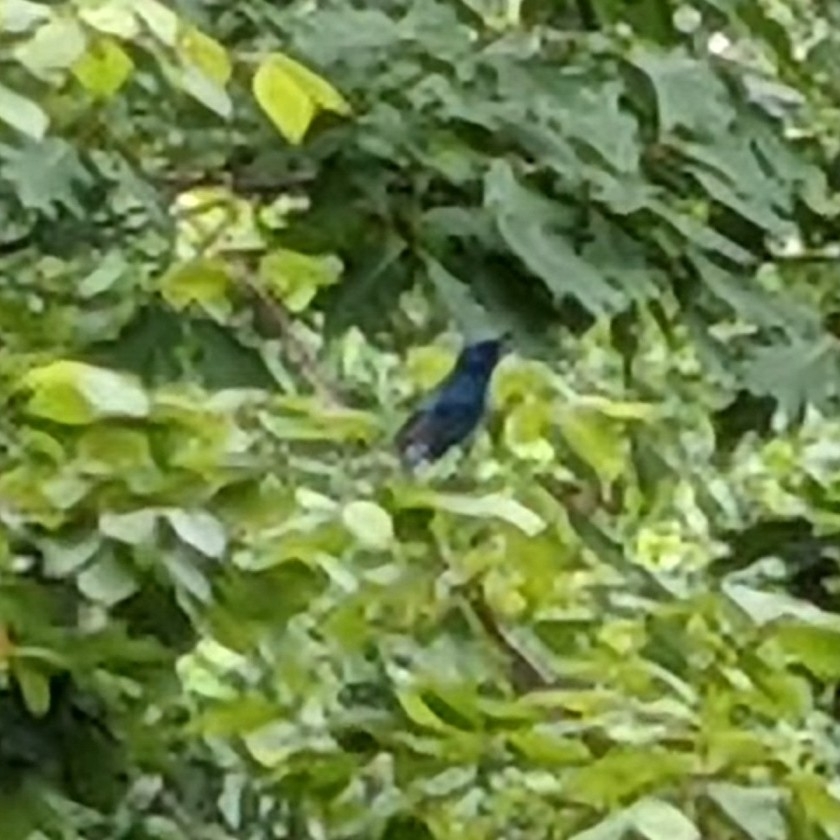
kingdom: Animalia
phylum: Chordata
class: Aves
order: Passeriformes
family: Cardinalidae
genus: Passerina
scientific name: Passerina cyanea
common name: Indigo bunting
